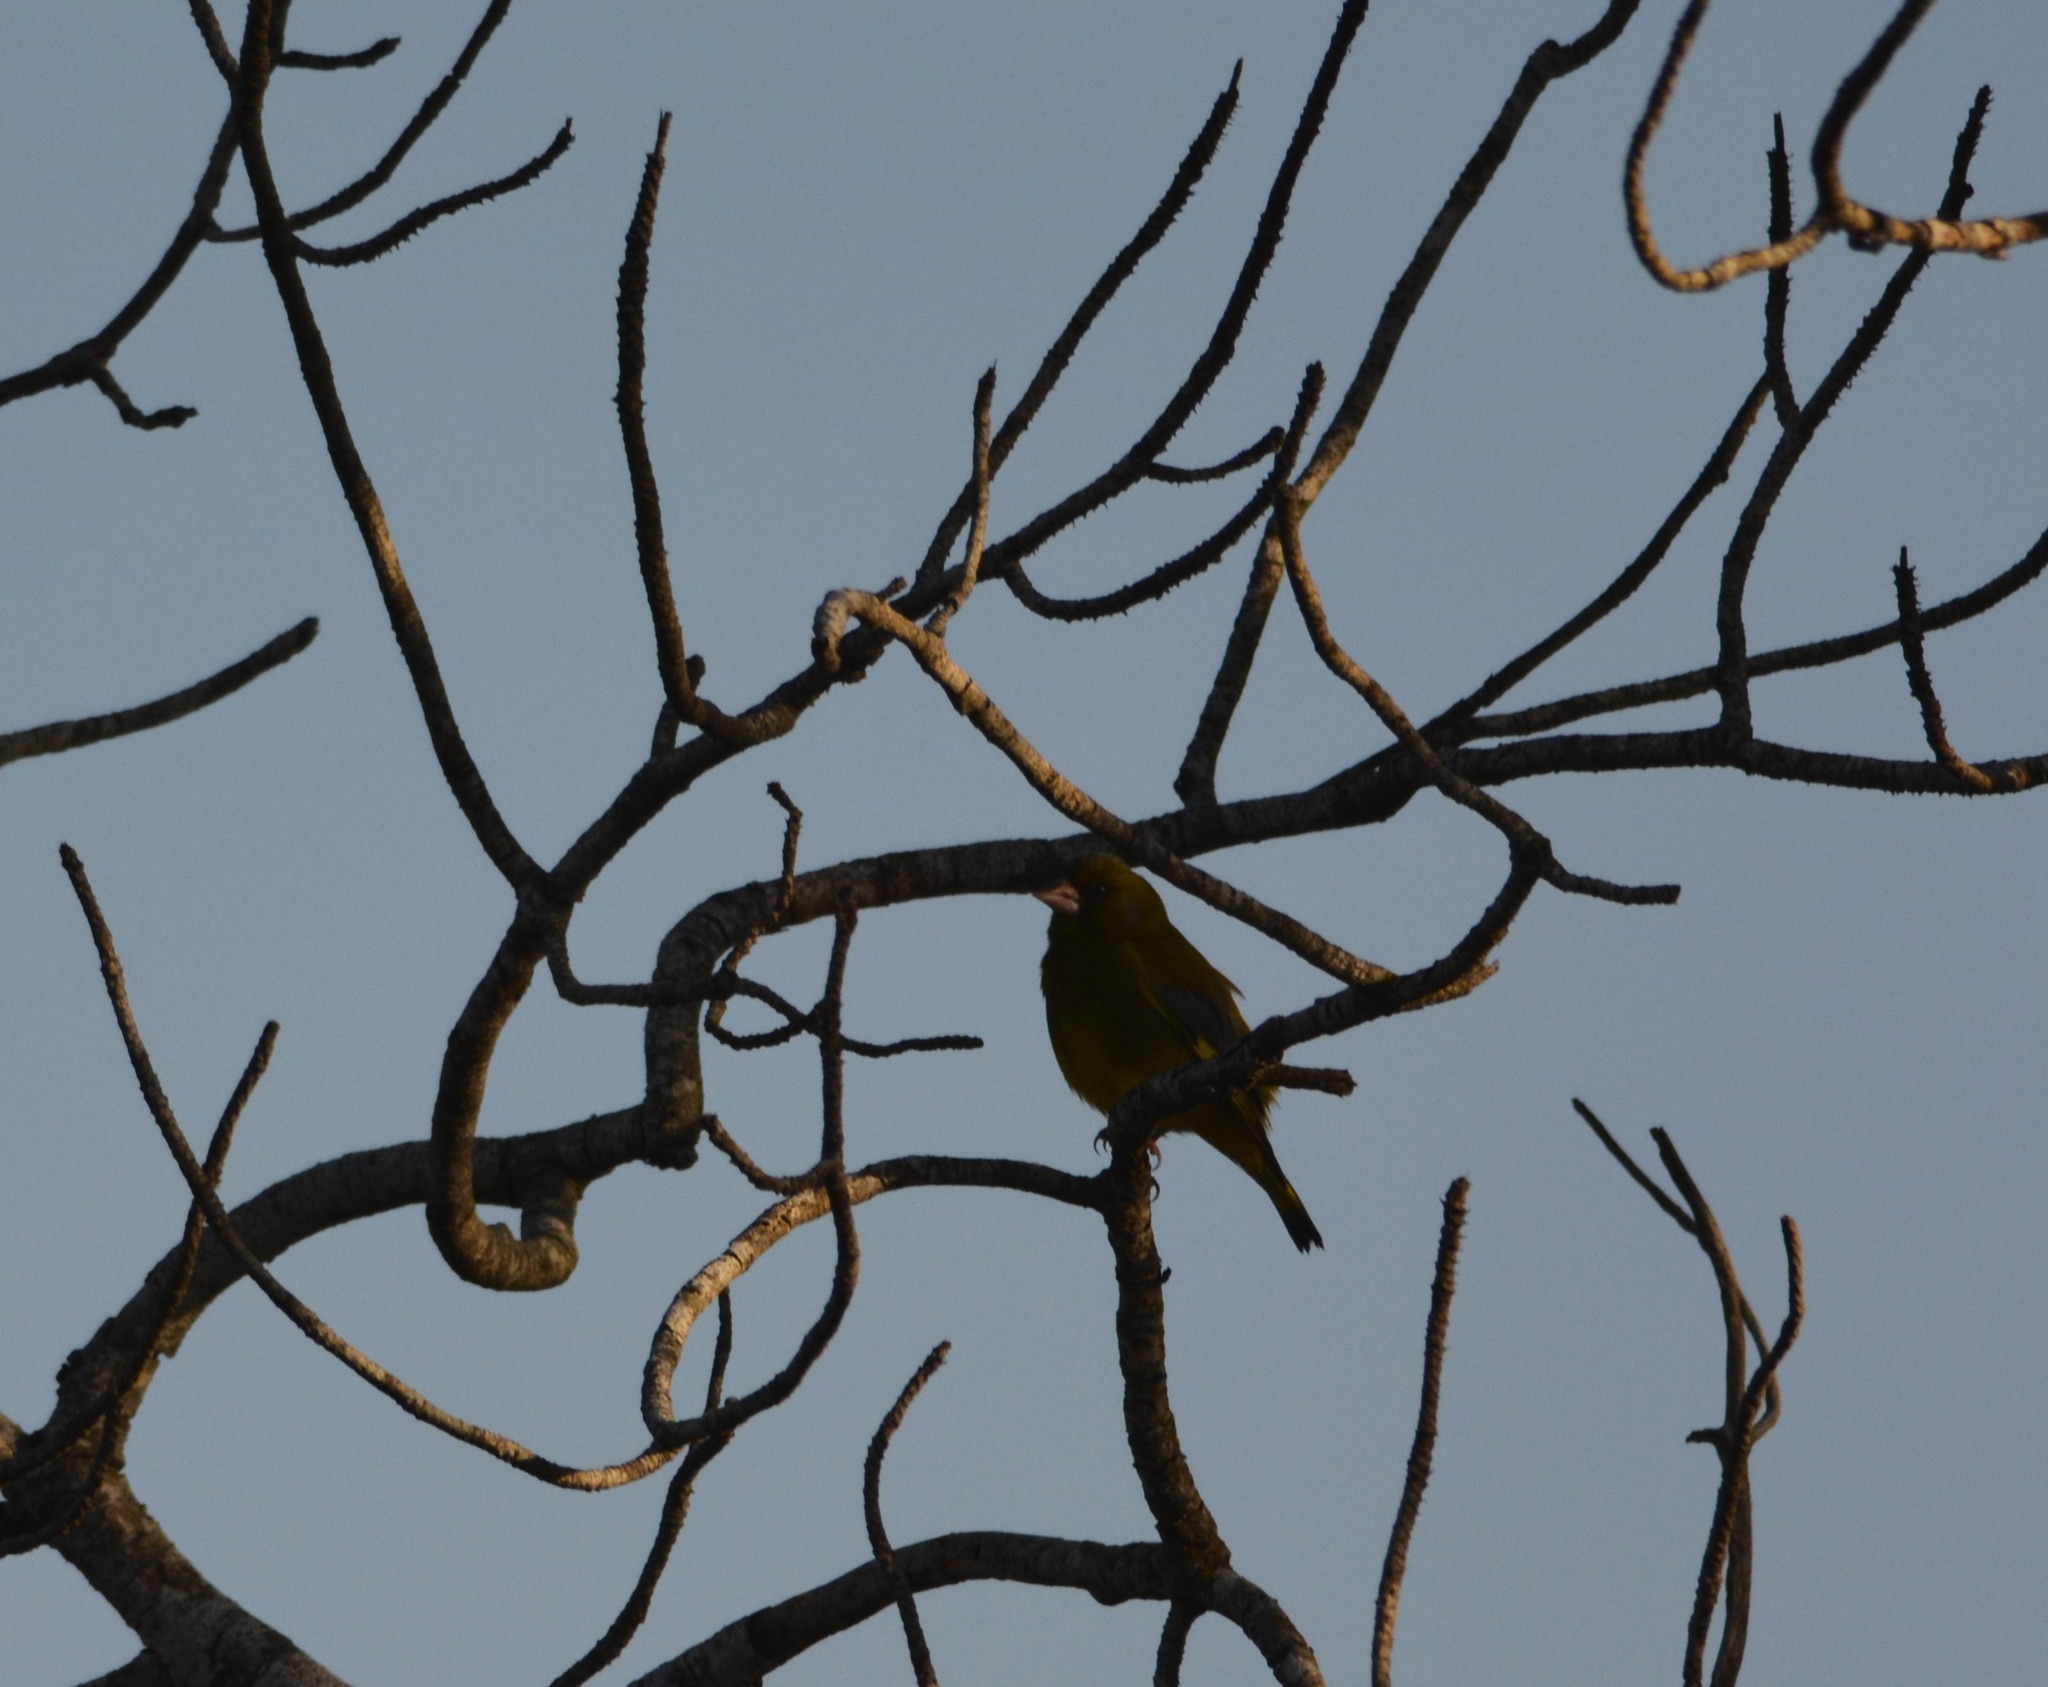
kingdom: Plantae
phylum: Tracheophyta
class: Liliopsida
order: Poales
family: Poaceae
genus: Chloris
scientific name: Chloris chloris
